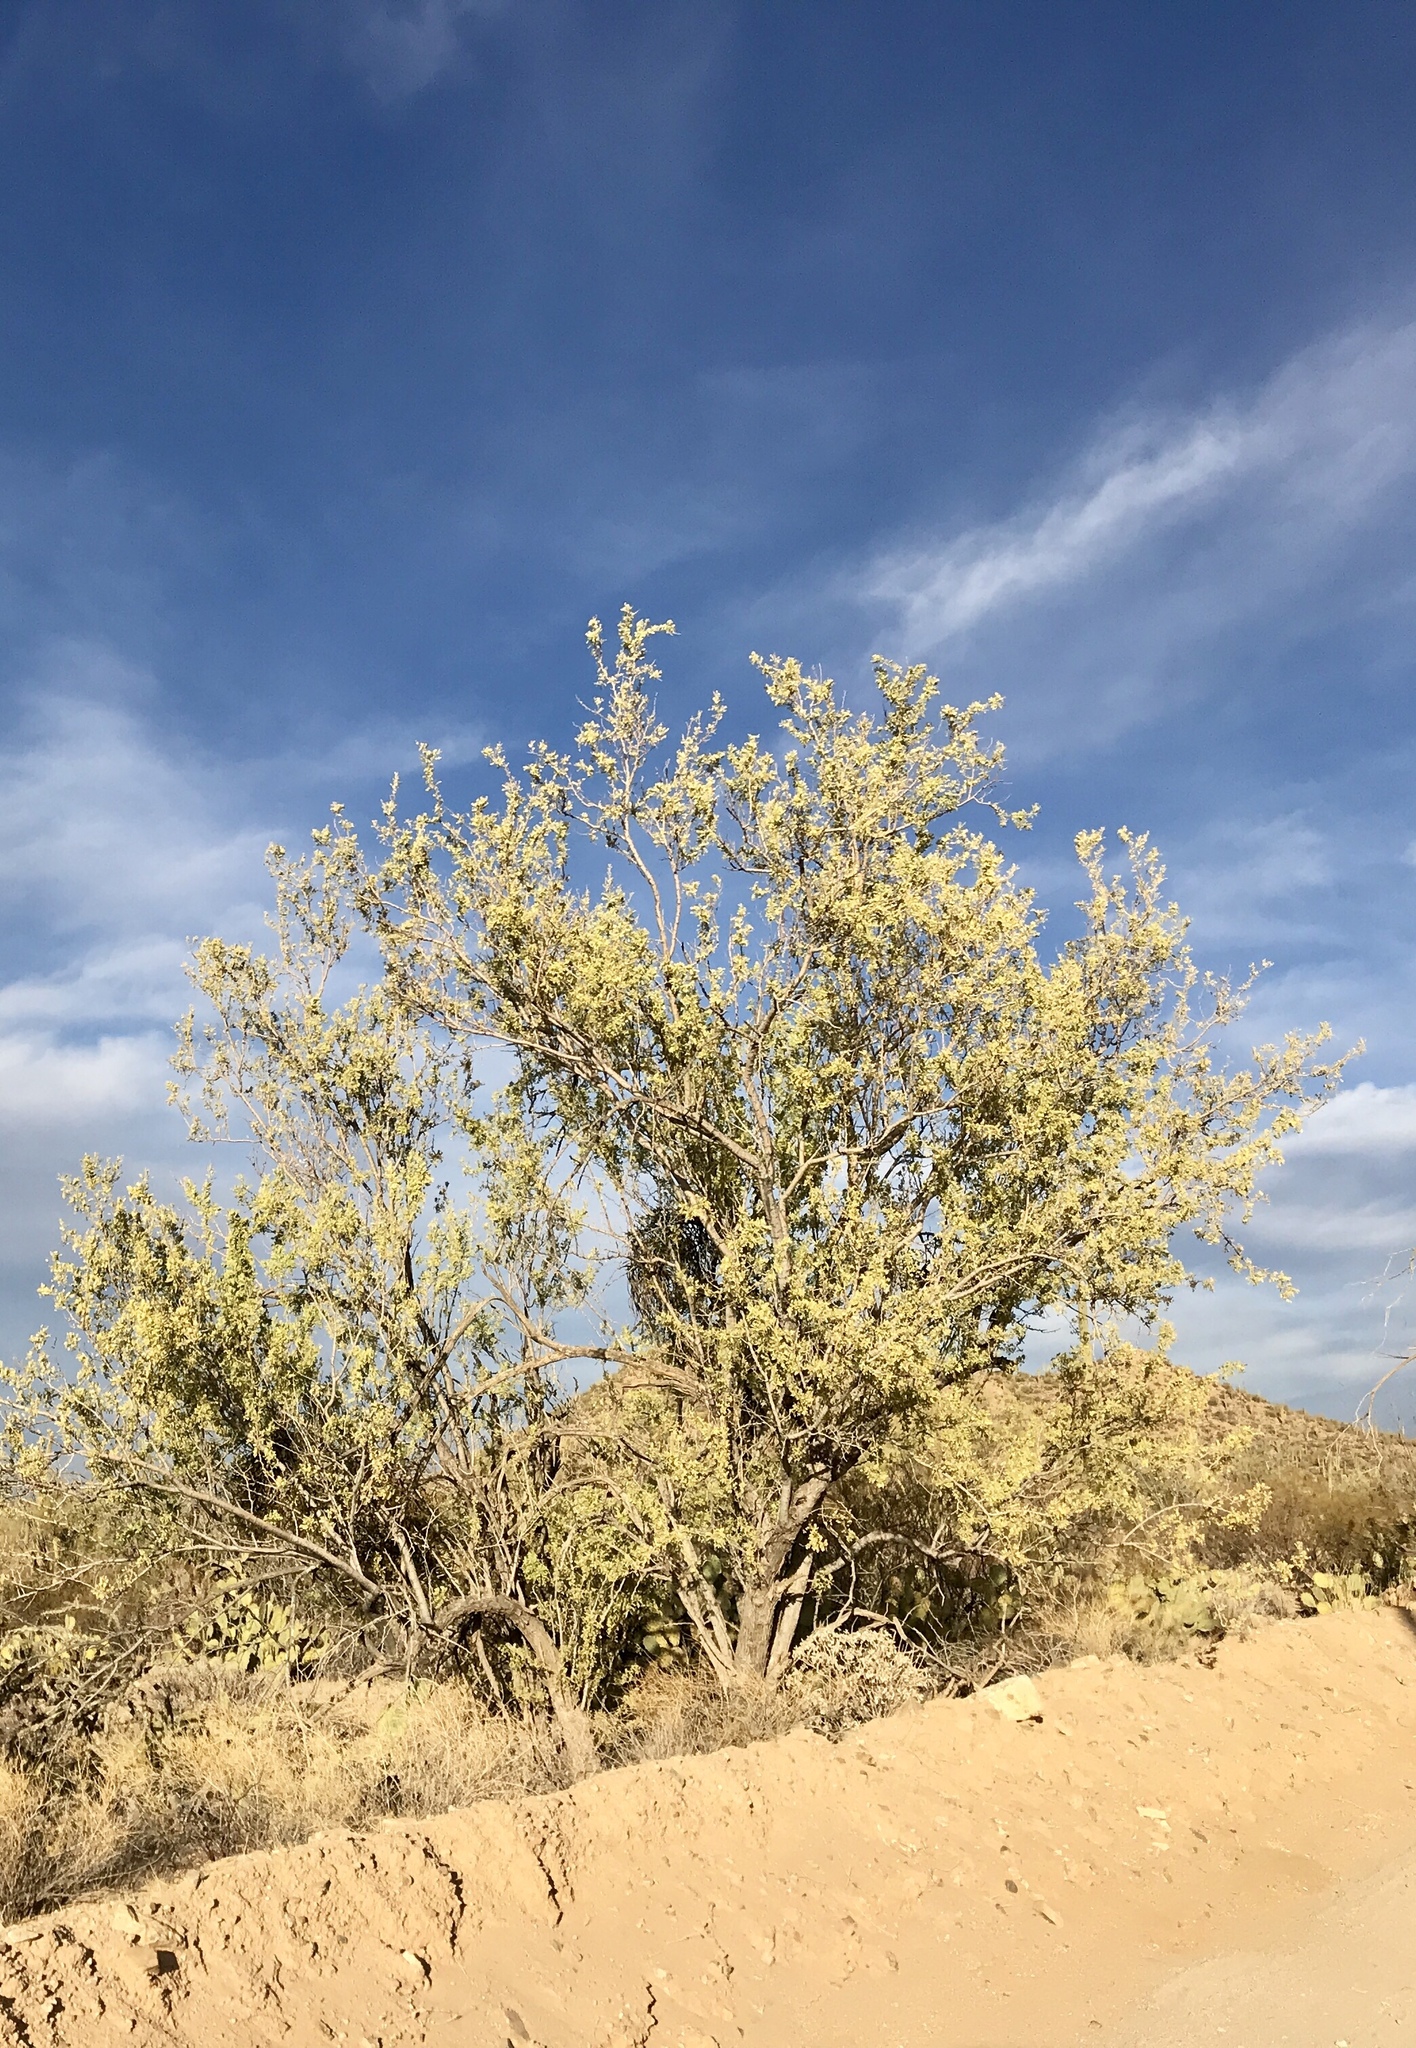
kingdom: Plantae
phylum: Tracheophyta
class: Magnoliopsida
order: Fabales
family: Fabaceae
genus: Olneya
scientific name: Olneya tesota
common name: Desert ironwood
